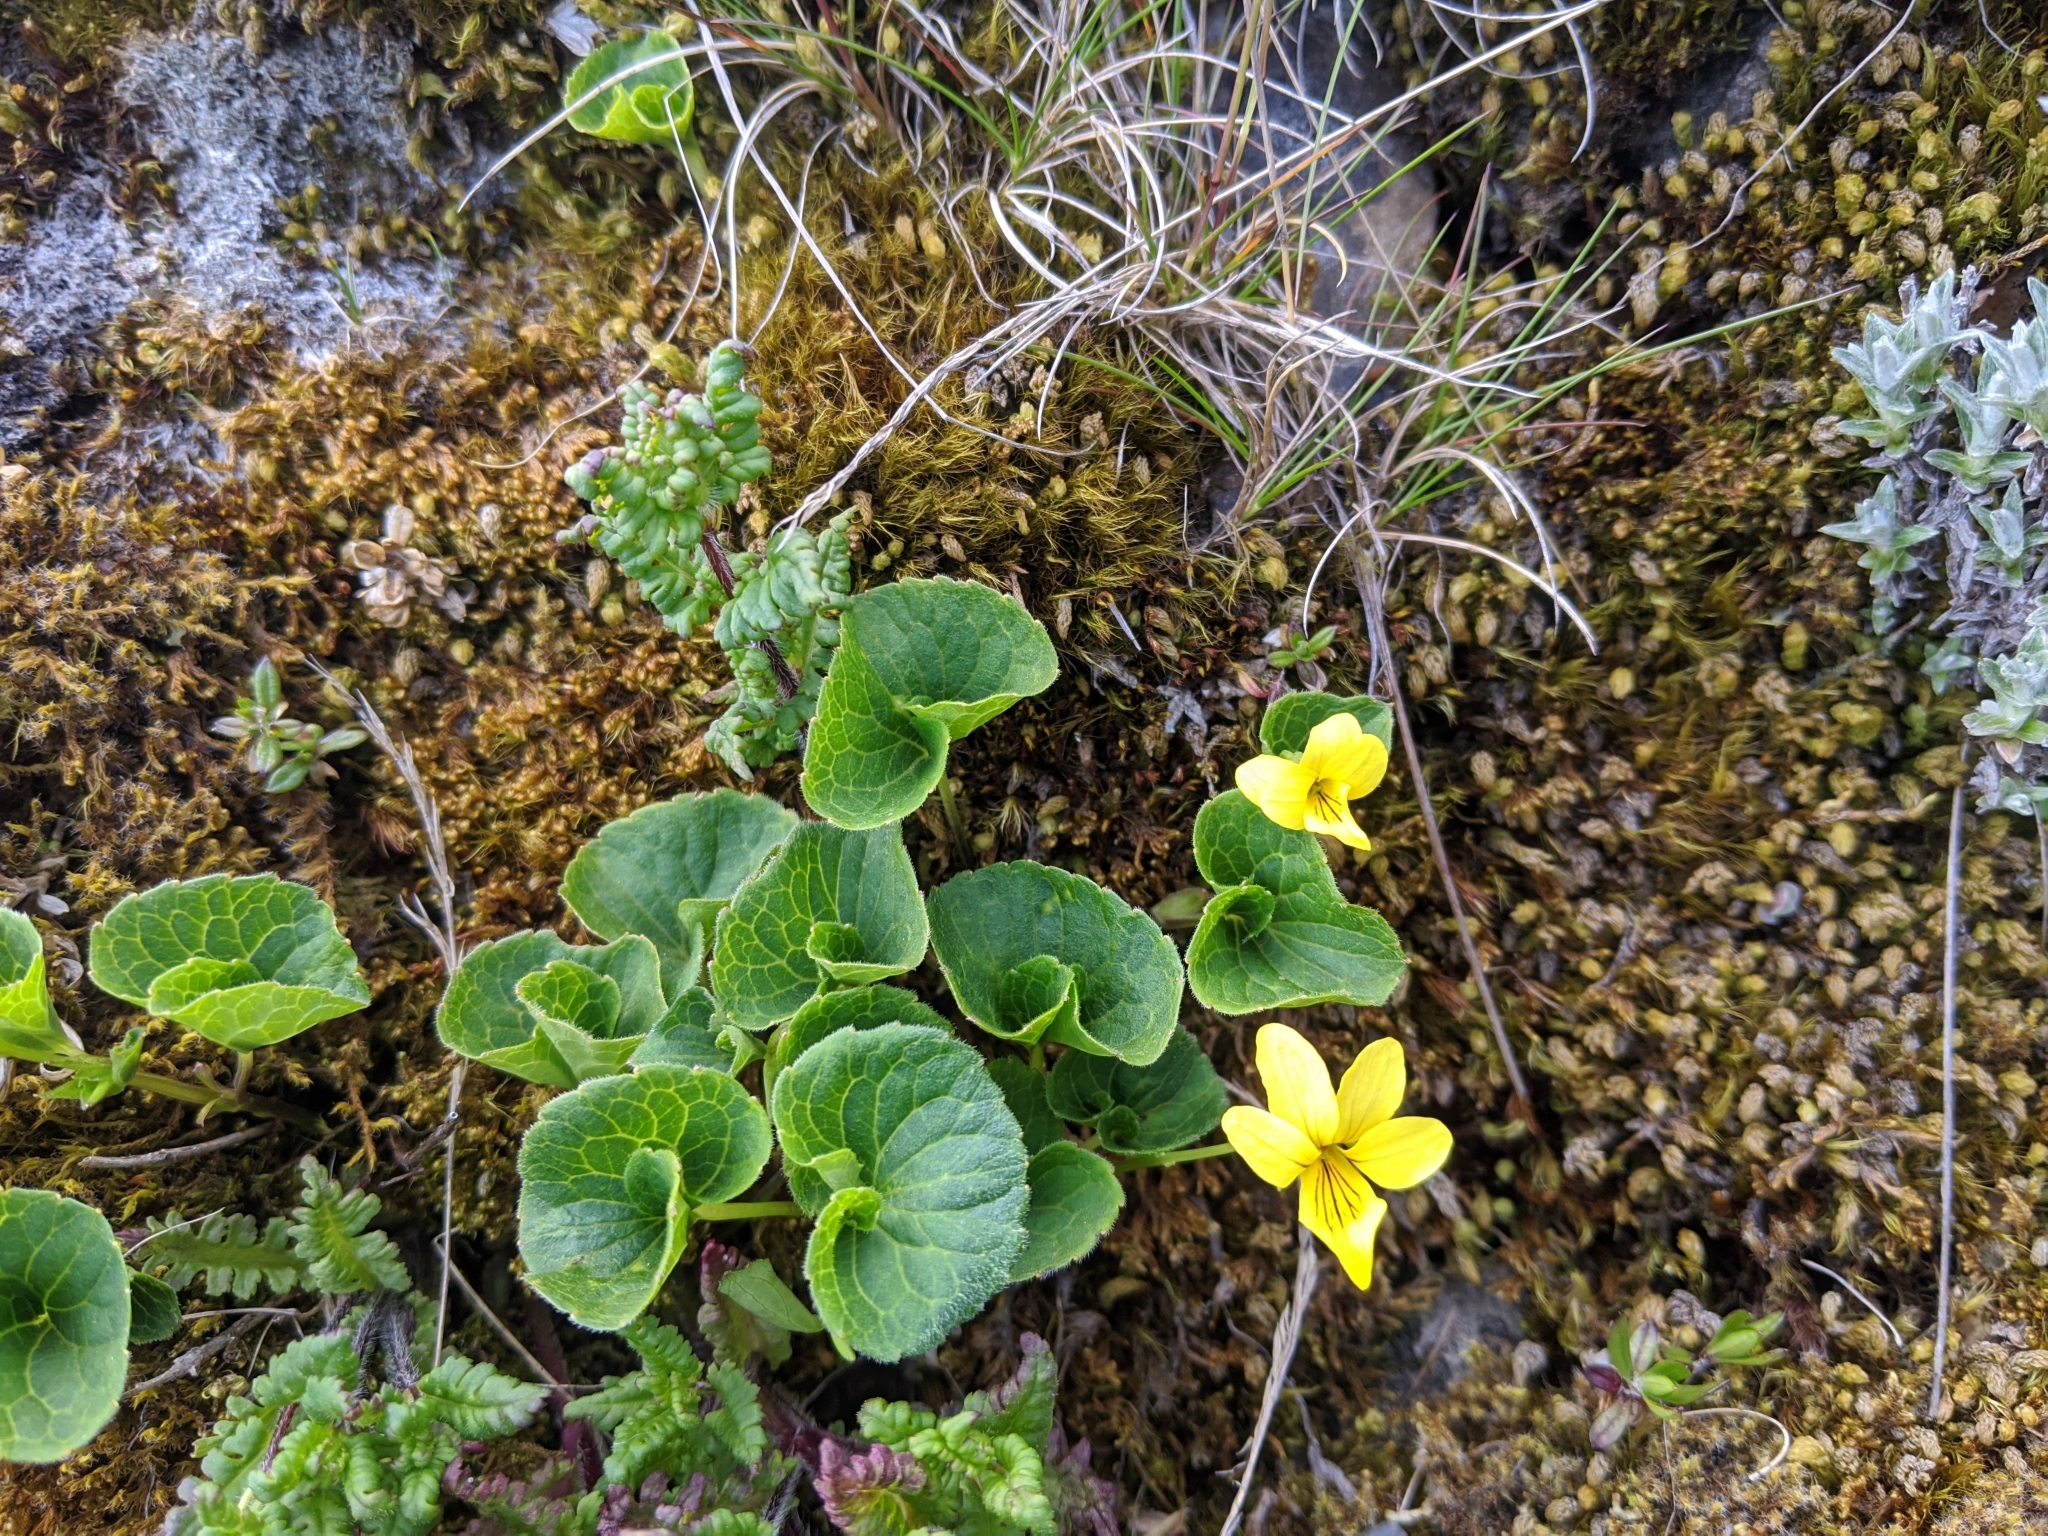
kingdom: Plantae
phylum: Tracheophyta
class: Magnoliopsida
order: Malpighiales
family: Violaceae
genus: Viola
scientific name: Viola biflora
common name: Alpine yellow violet
